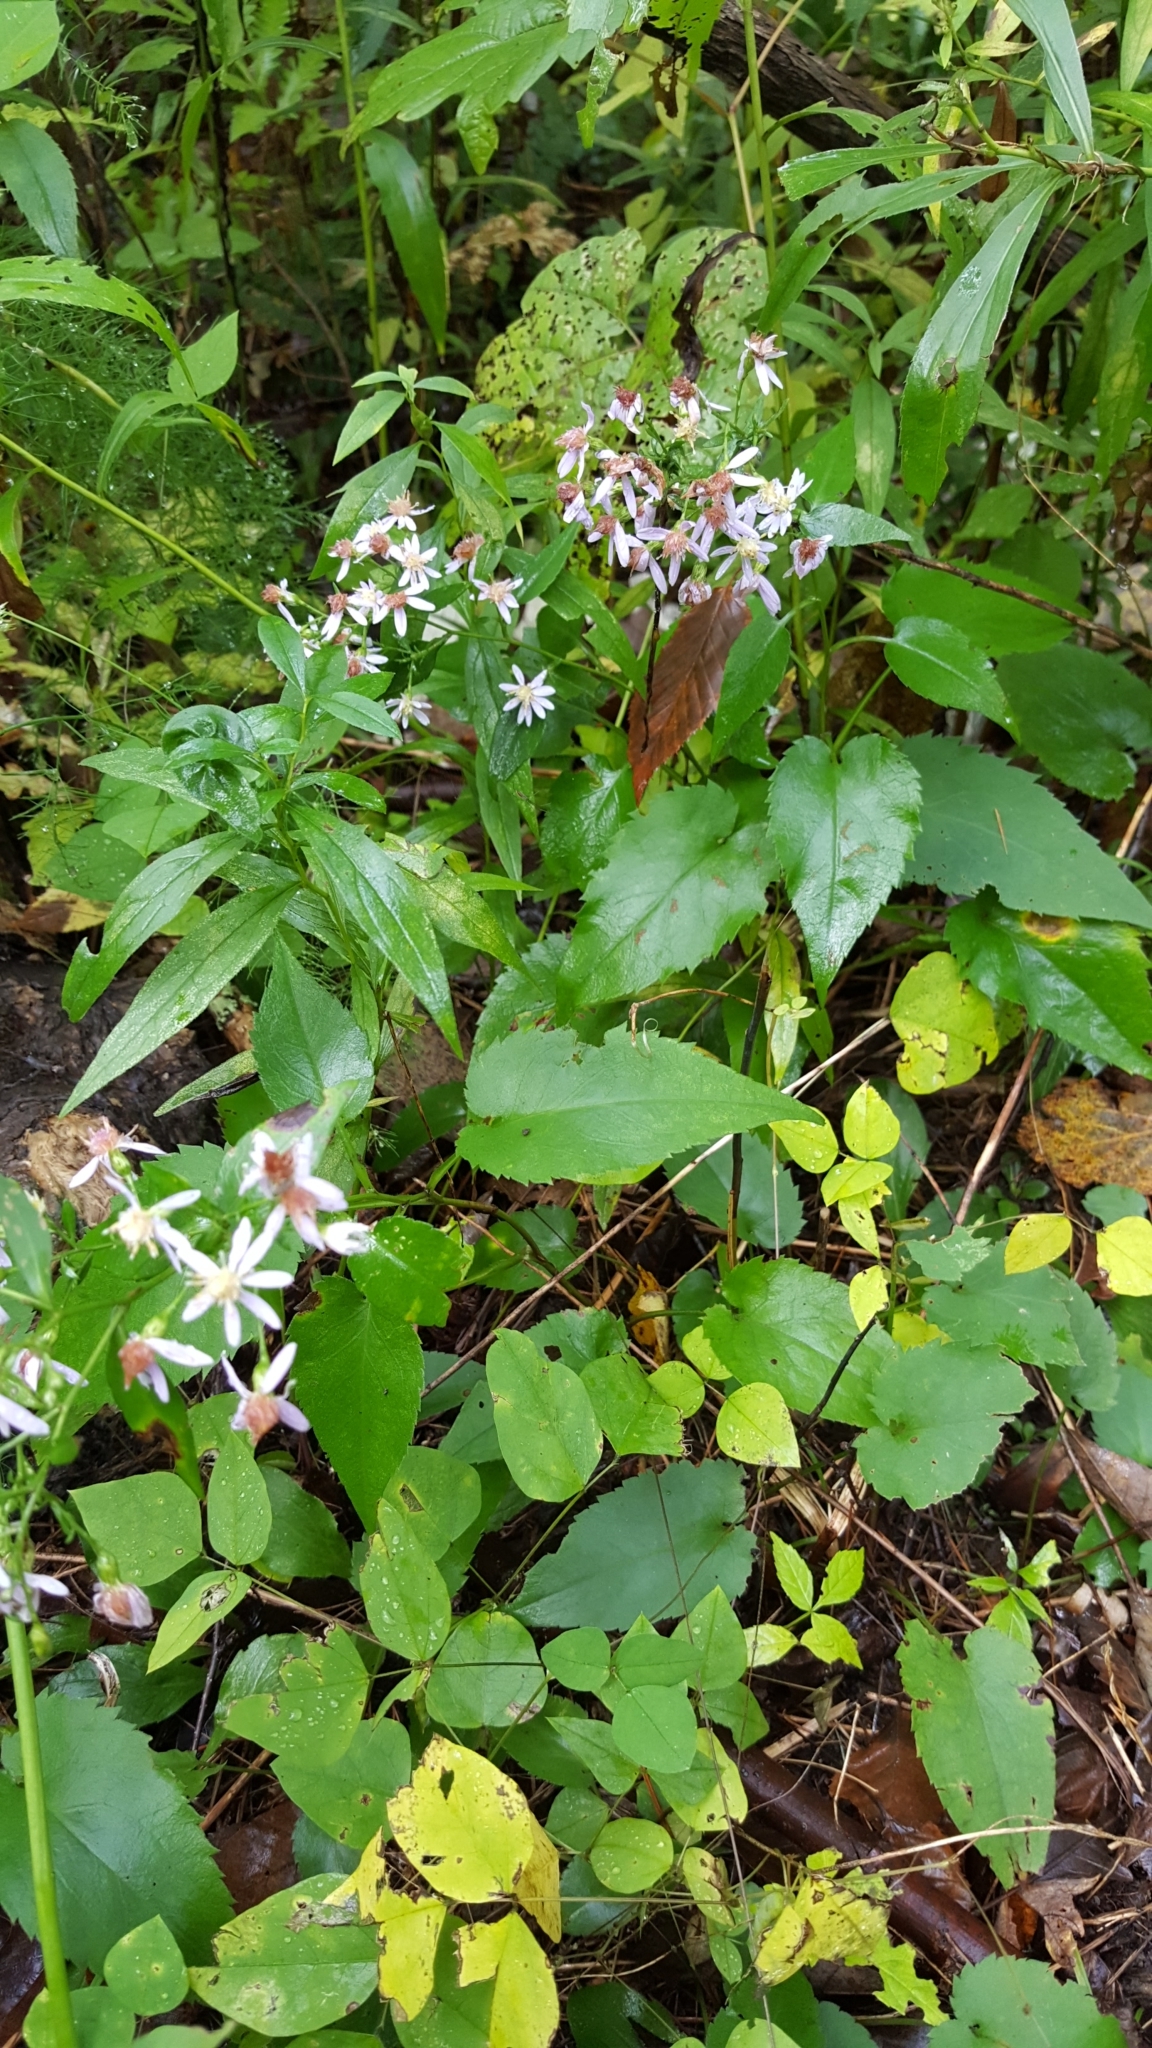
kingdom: Plantae
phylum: Tracheophyta
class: Magnoliopsida
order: Asterales
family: Asteraceae
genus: Symphyotrichum
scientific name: Symphyotrichum cordifolium
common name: Beeweed
